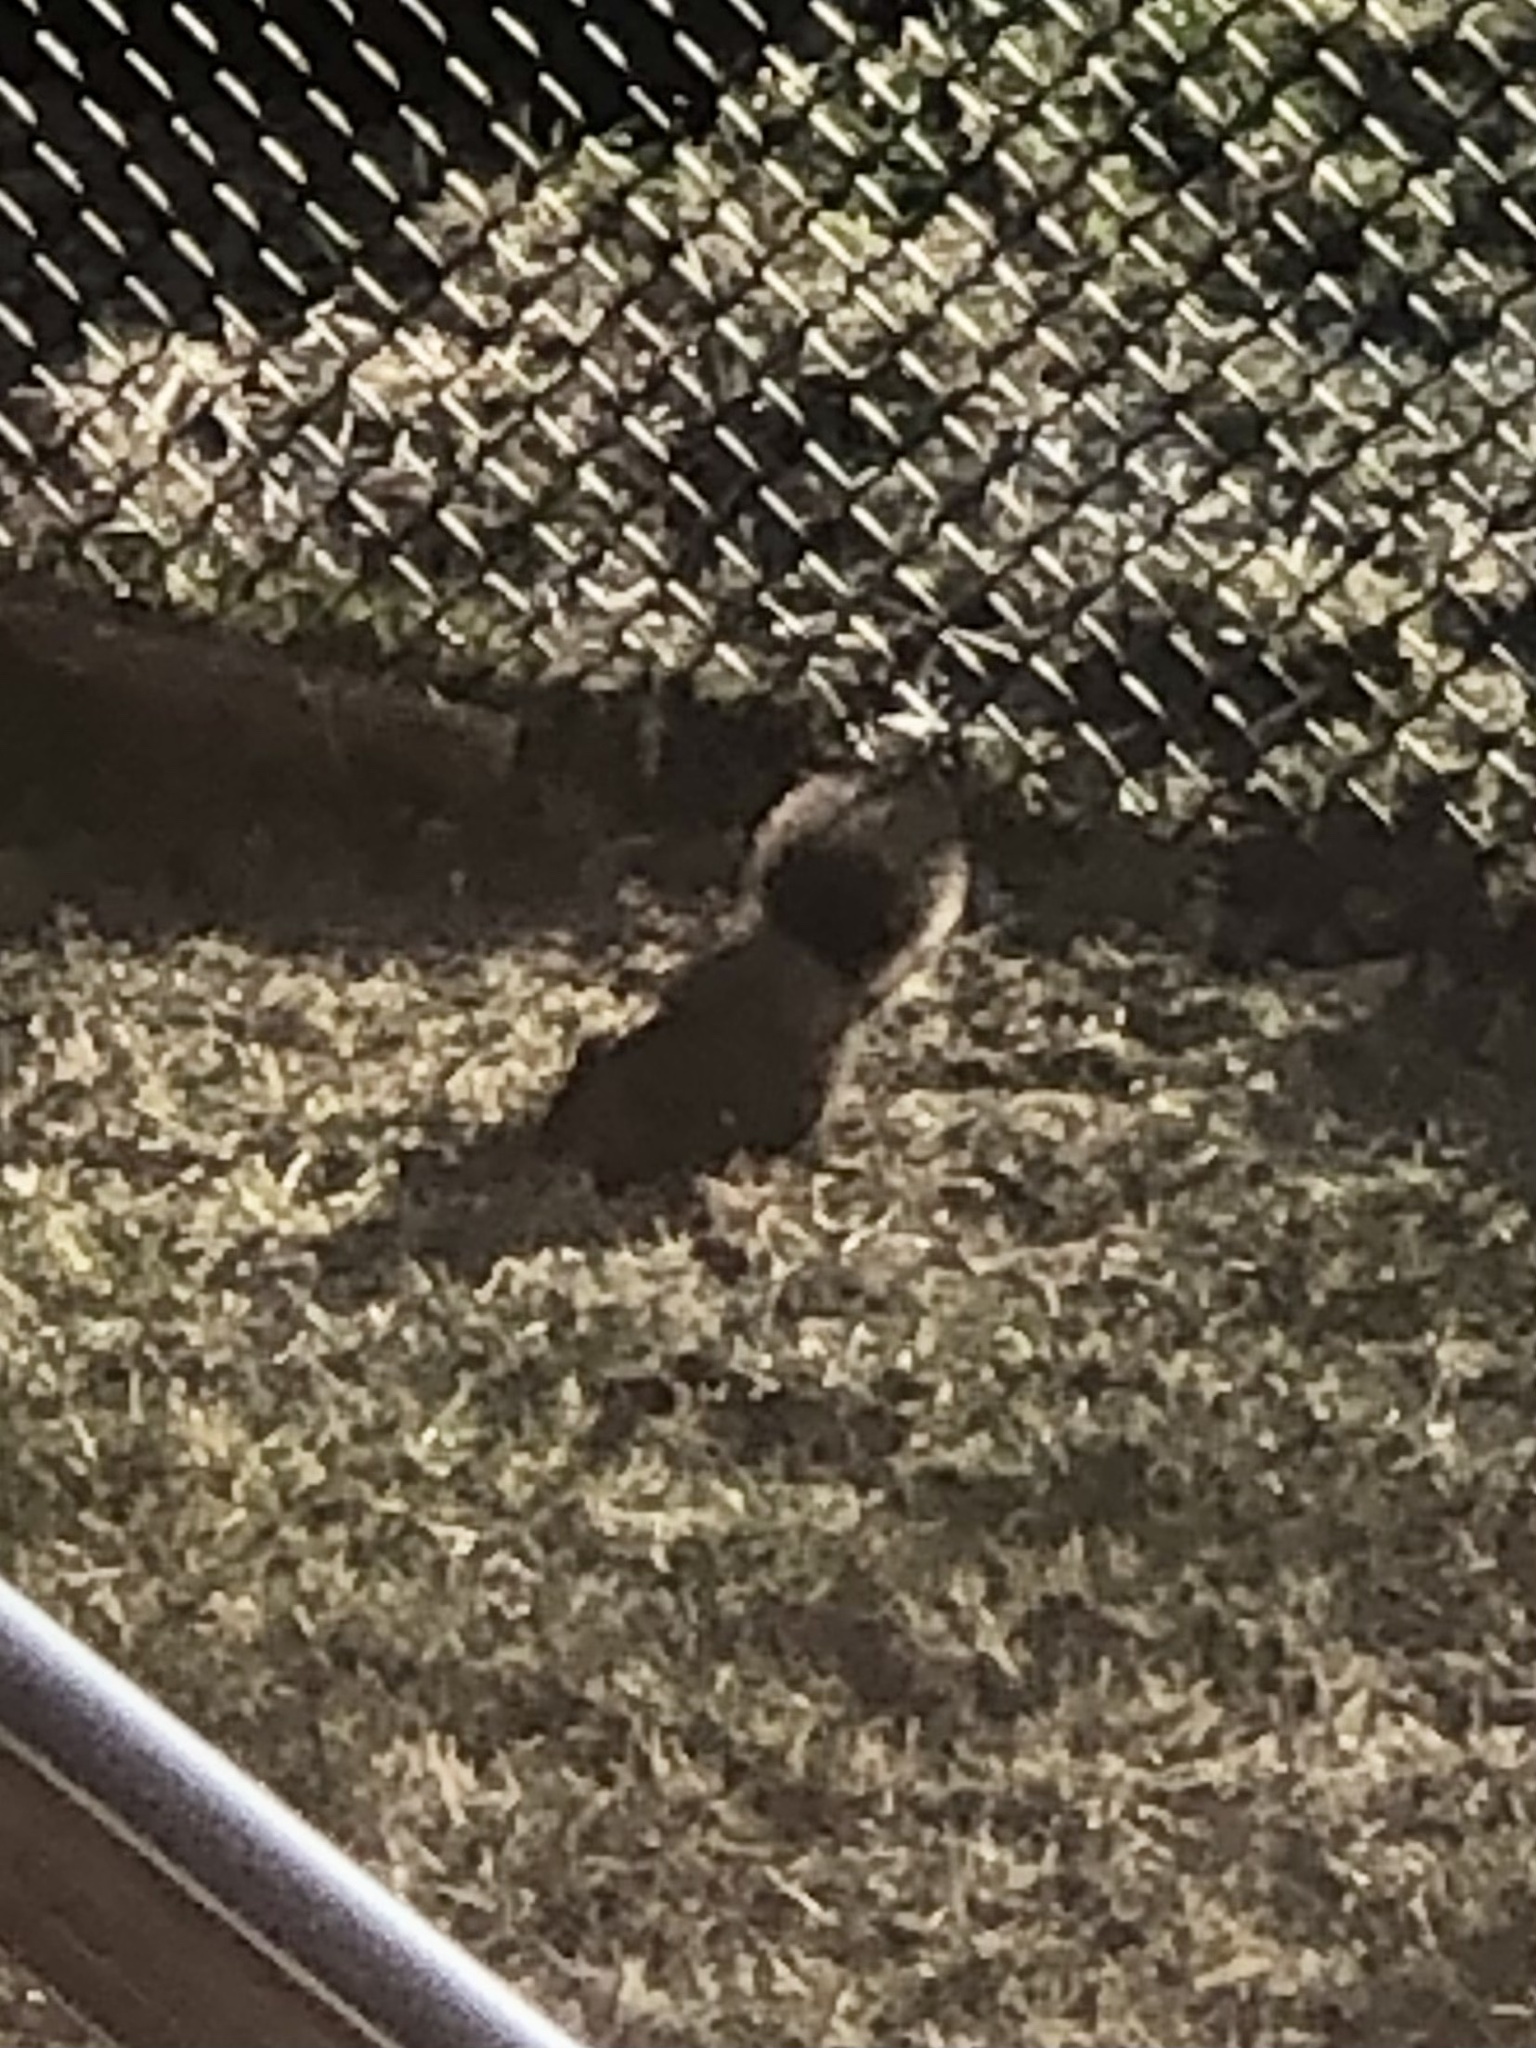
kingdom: Animalia
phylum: Chordata
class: Mammalia
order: Rodentia
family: Sciuridae
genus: Sciurus
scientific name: Sciurus carolinensis
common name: Eastern gray squirrel
